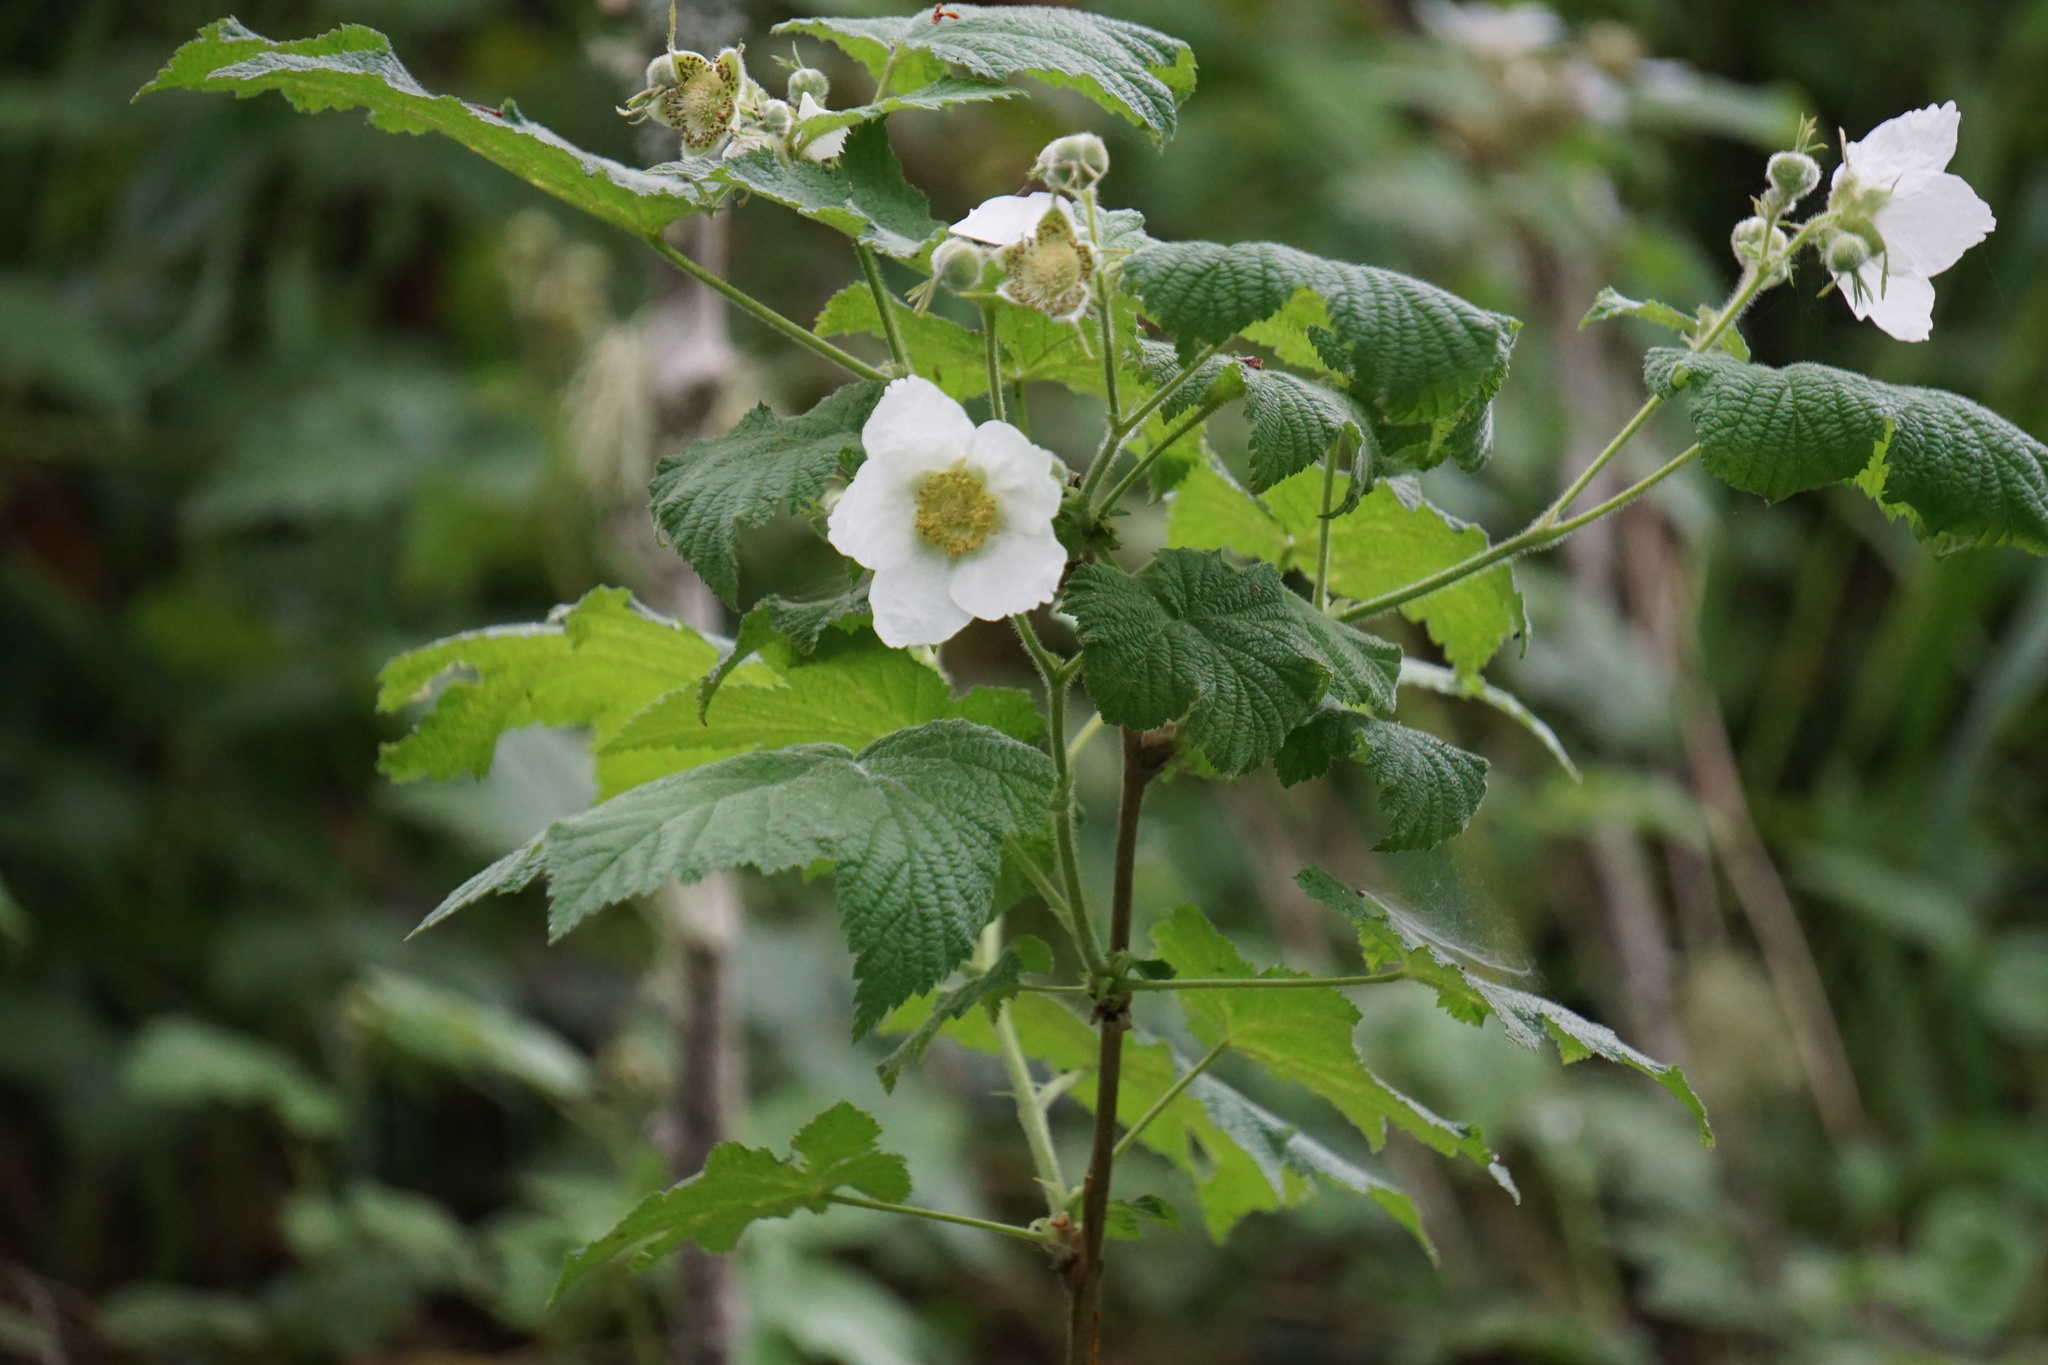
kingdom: Plantae
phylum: Tracheophyta
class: Magnoliopsida
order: Rosales
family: Rosaceae
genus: Rubus
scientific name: Rubus parviflorus
